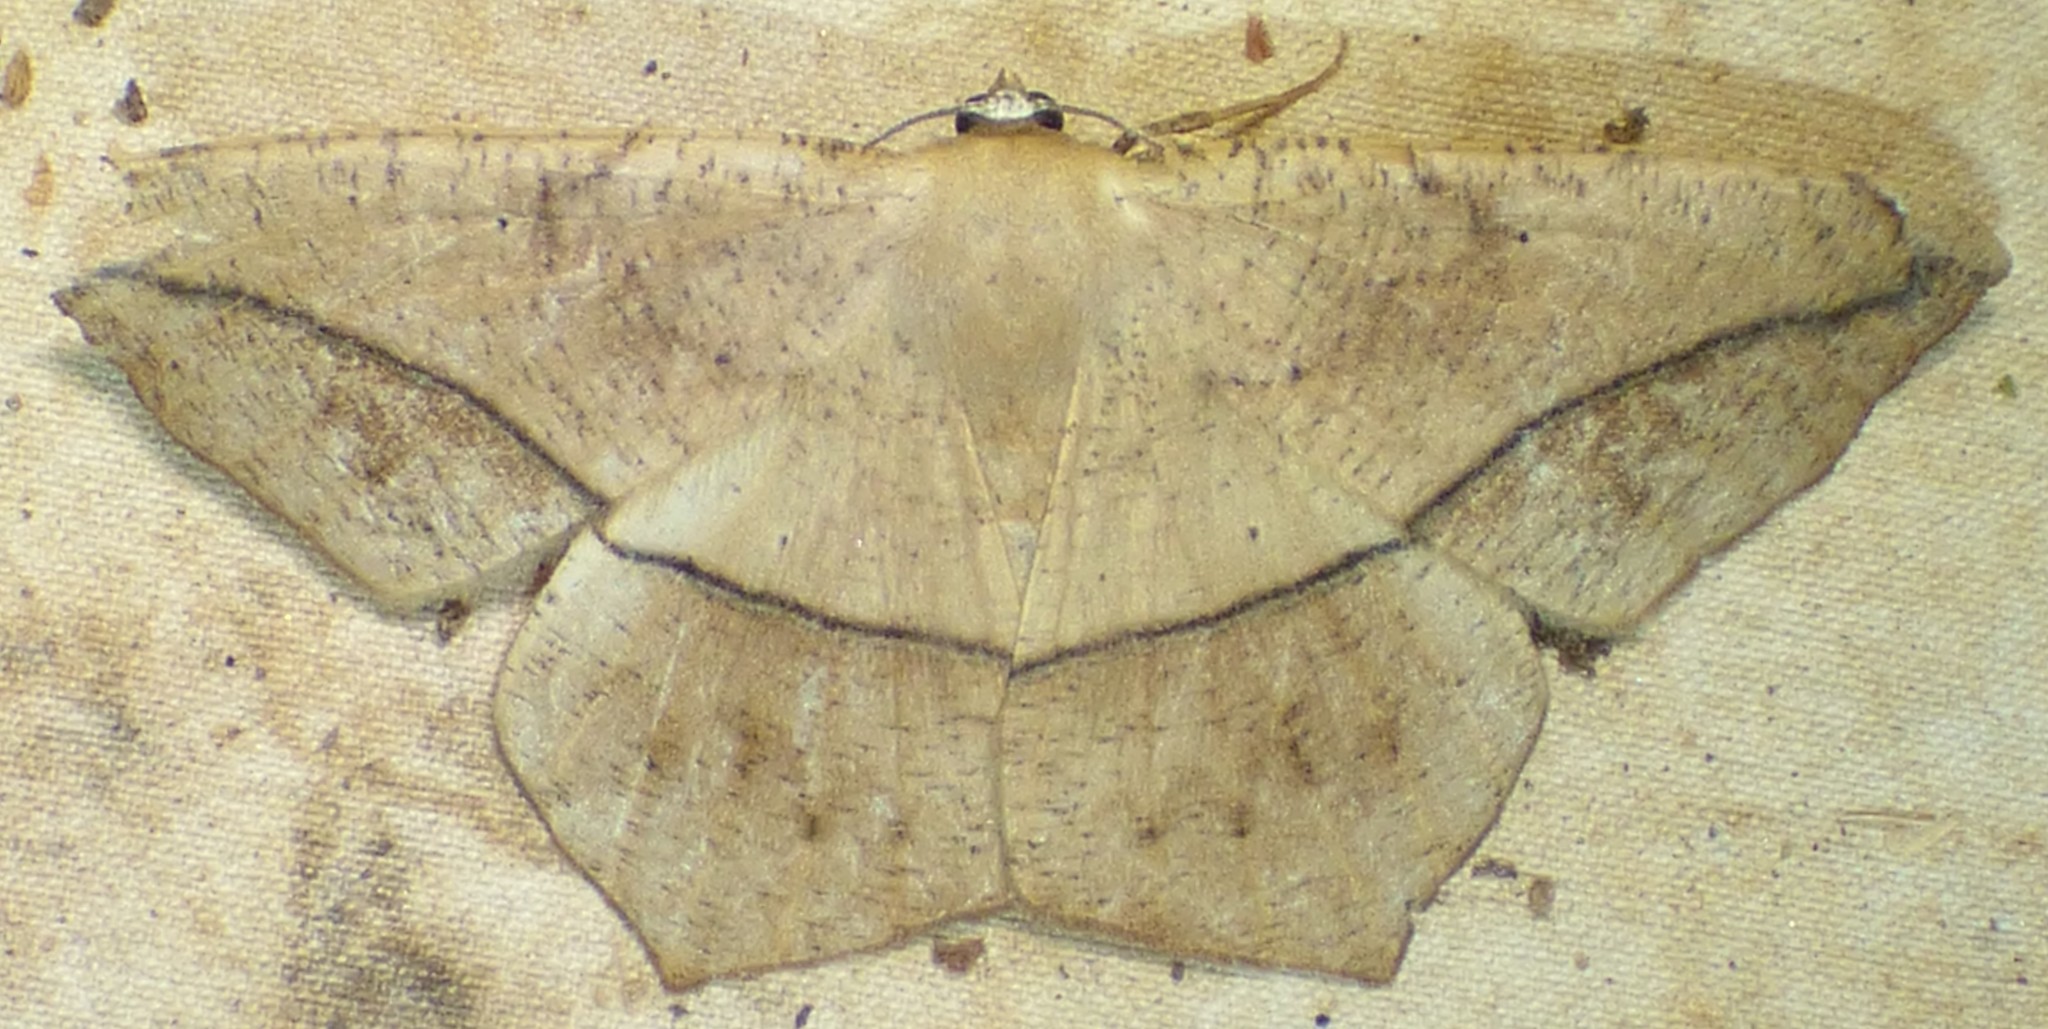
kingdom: Animalia
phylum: Arthropoda
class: Insecta
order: Lepidoptera
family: Geometridae
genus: Prochoerodes
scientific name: Prochoerodes lineola
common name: Large maple spanworm
